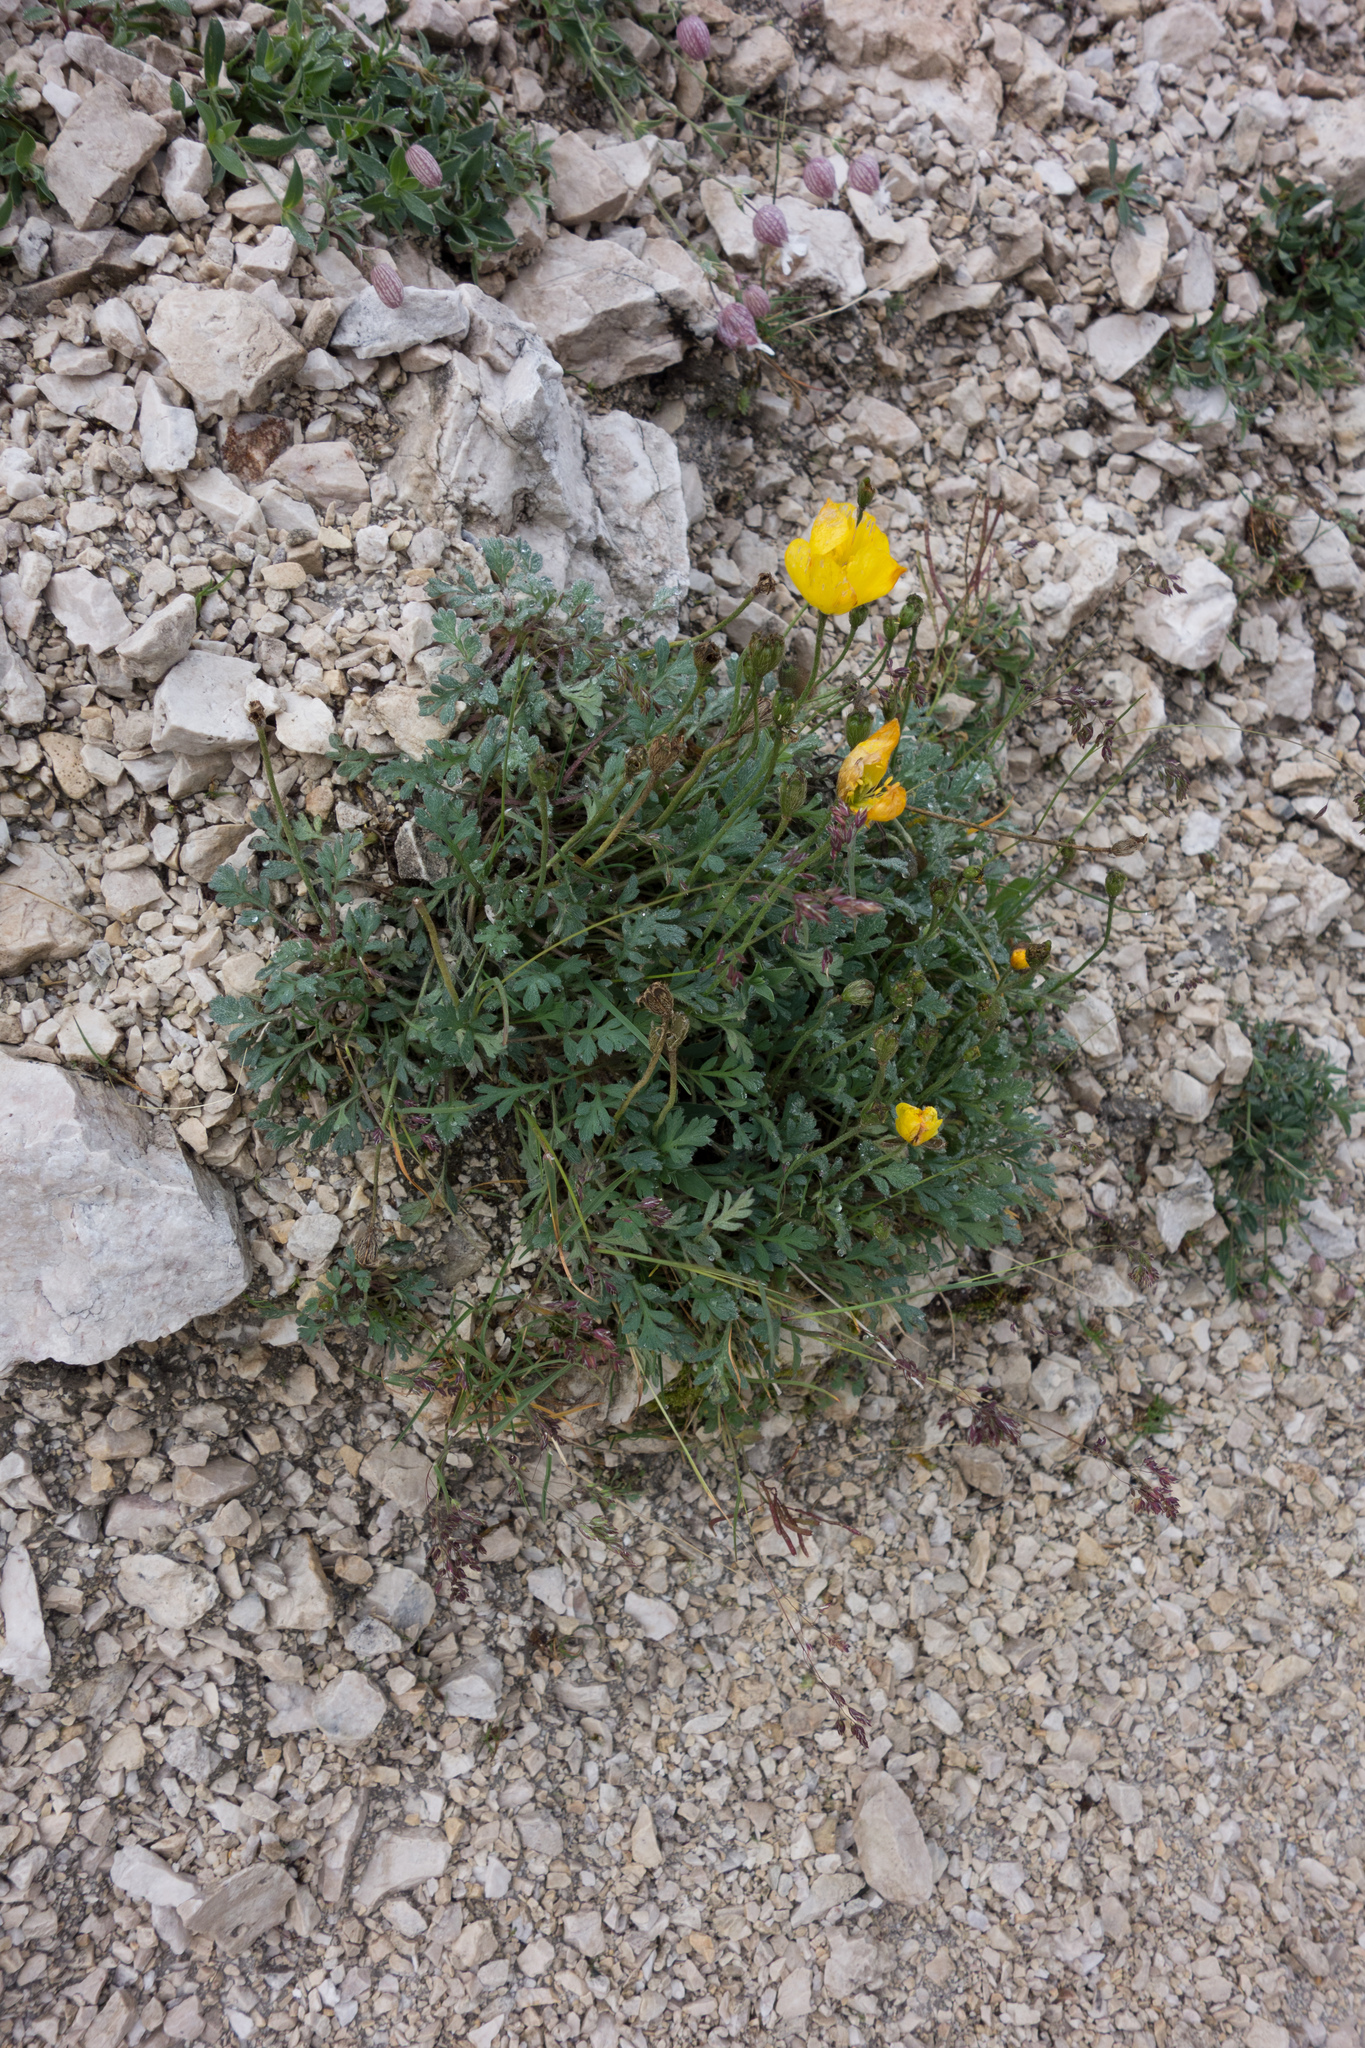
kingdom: Plantae
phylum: Tracheophyta
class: Magnoliopsida
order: Ranunculales
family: Papaveraceae
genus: Papaver
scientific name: Papaver alpinum
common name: Austrian poppy
